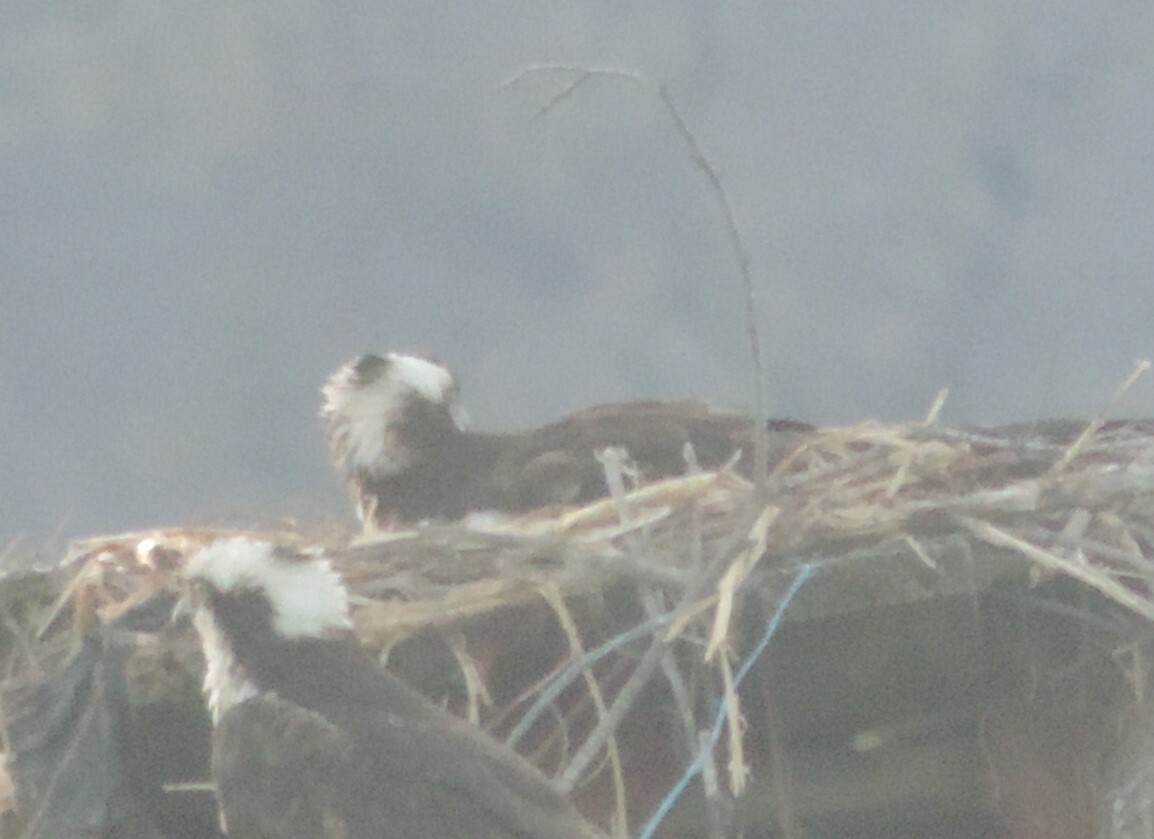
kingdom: Animalia
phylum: Chordata
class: Aves
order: Accipitriformes
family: Pandionidae
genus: Pandion
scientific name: Pandion haliaetus
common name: Osprey
